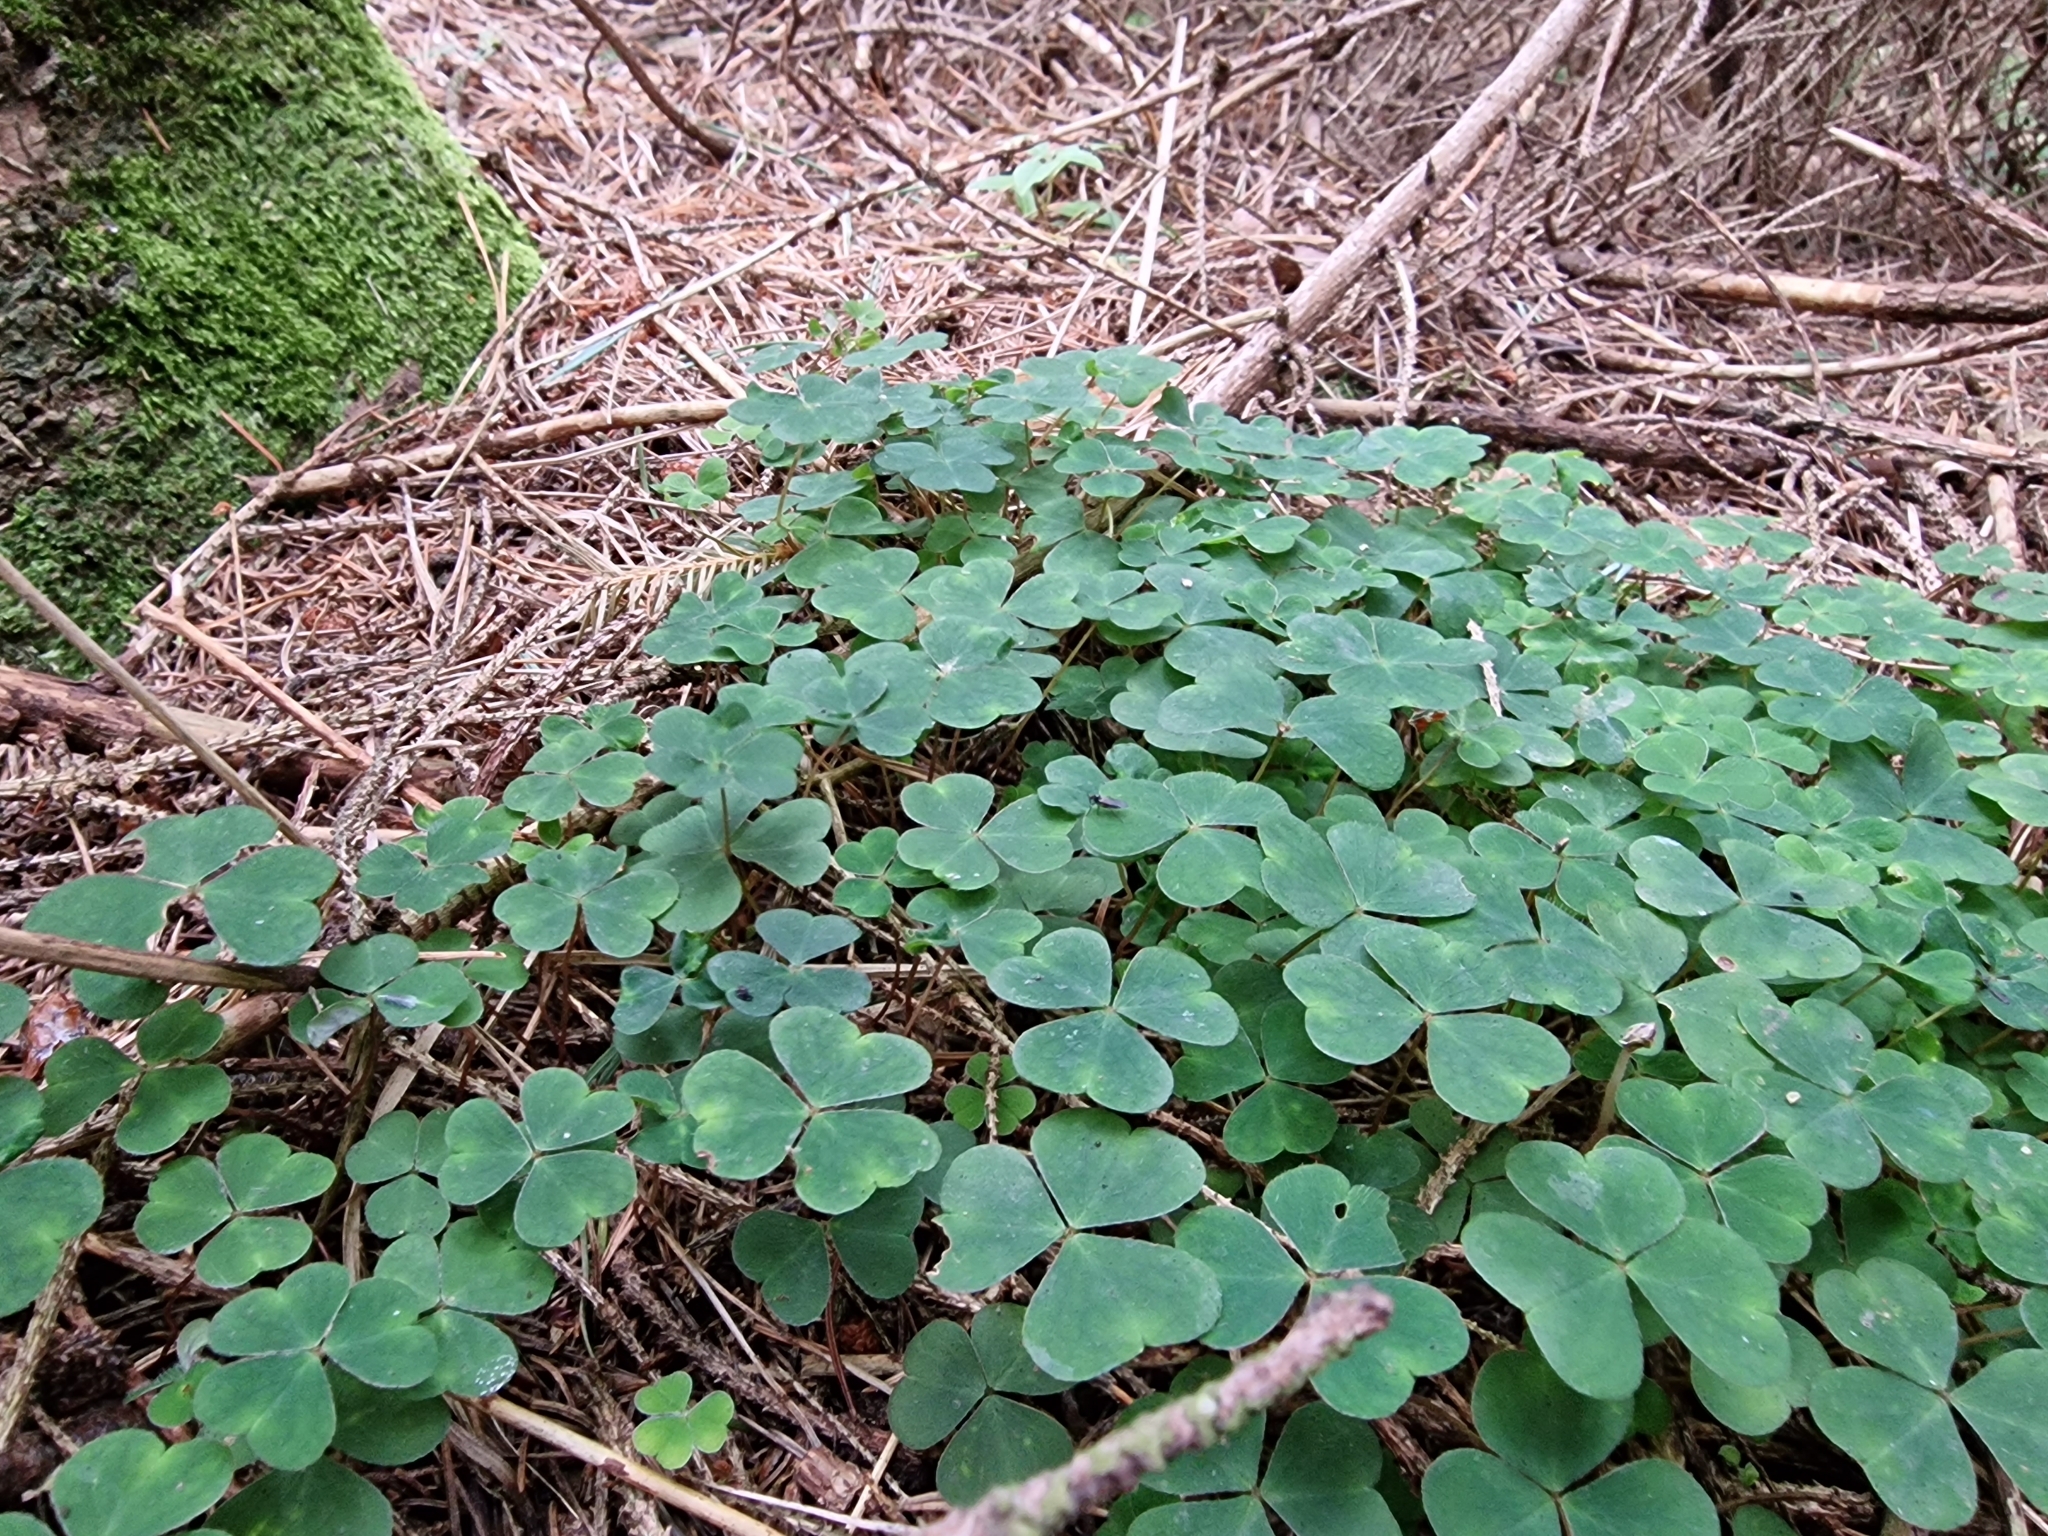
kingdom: Plantae
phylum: Tracheophyta
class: Magnoliopsida
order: Oxalidales
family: Oxalidaceae
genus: Oxalis
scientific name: Oxalis acetosella
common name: Wood-sorrel
